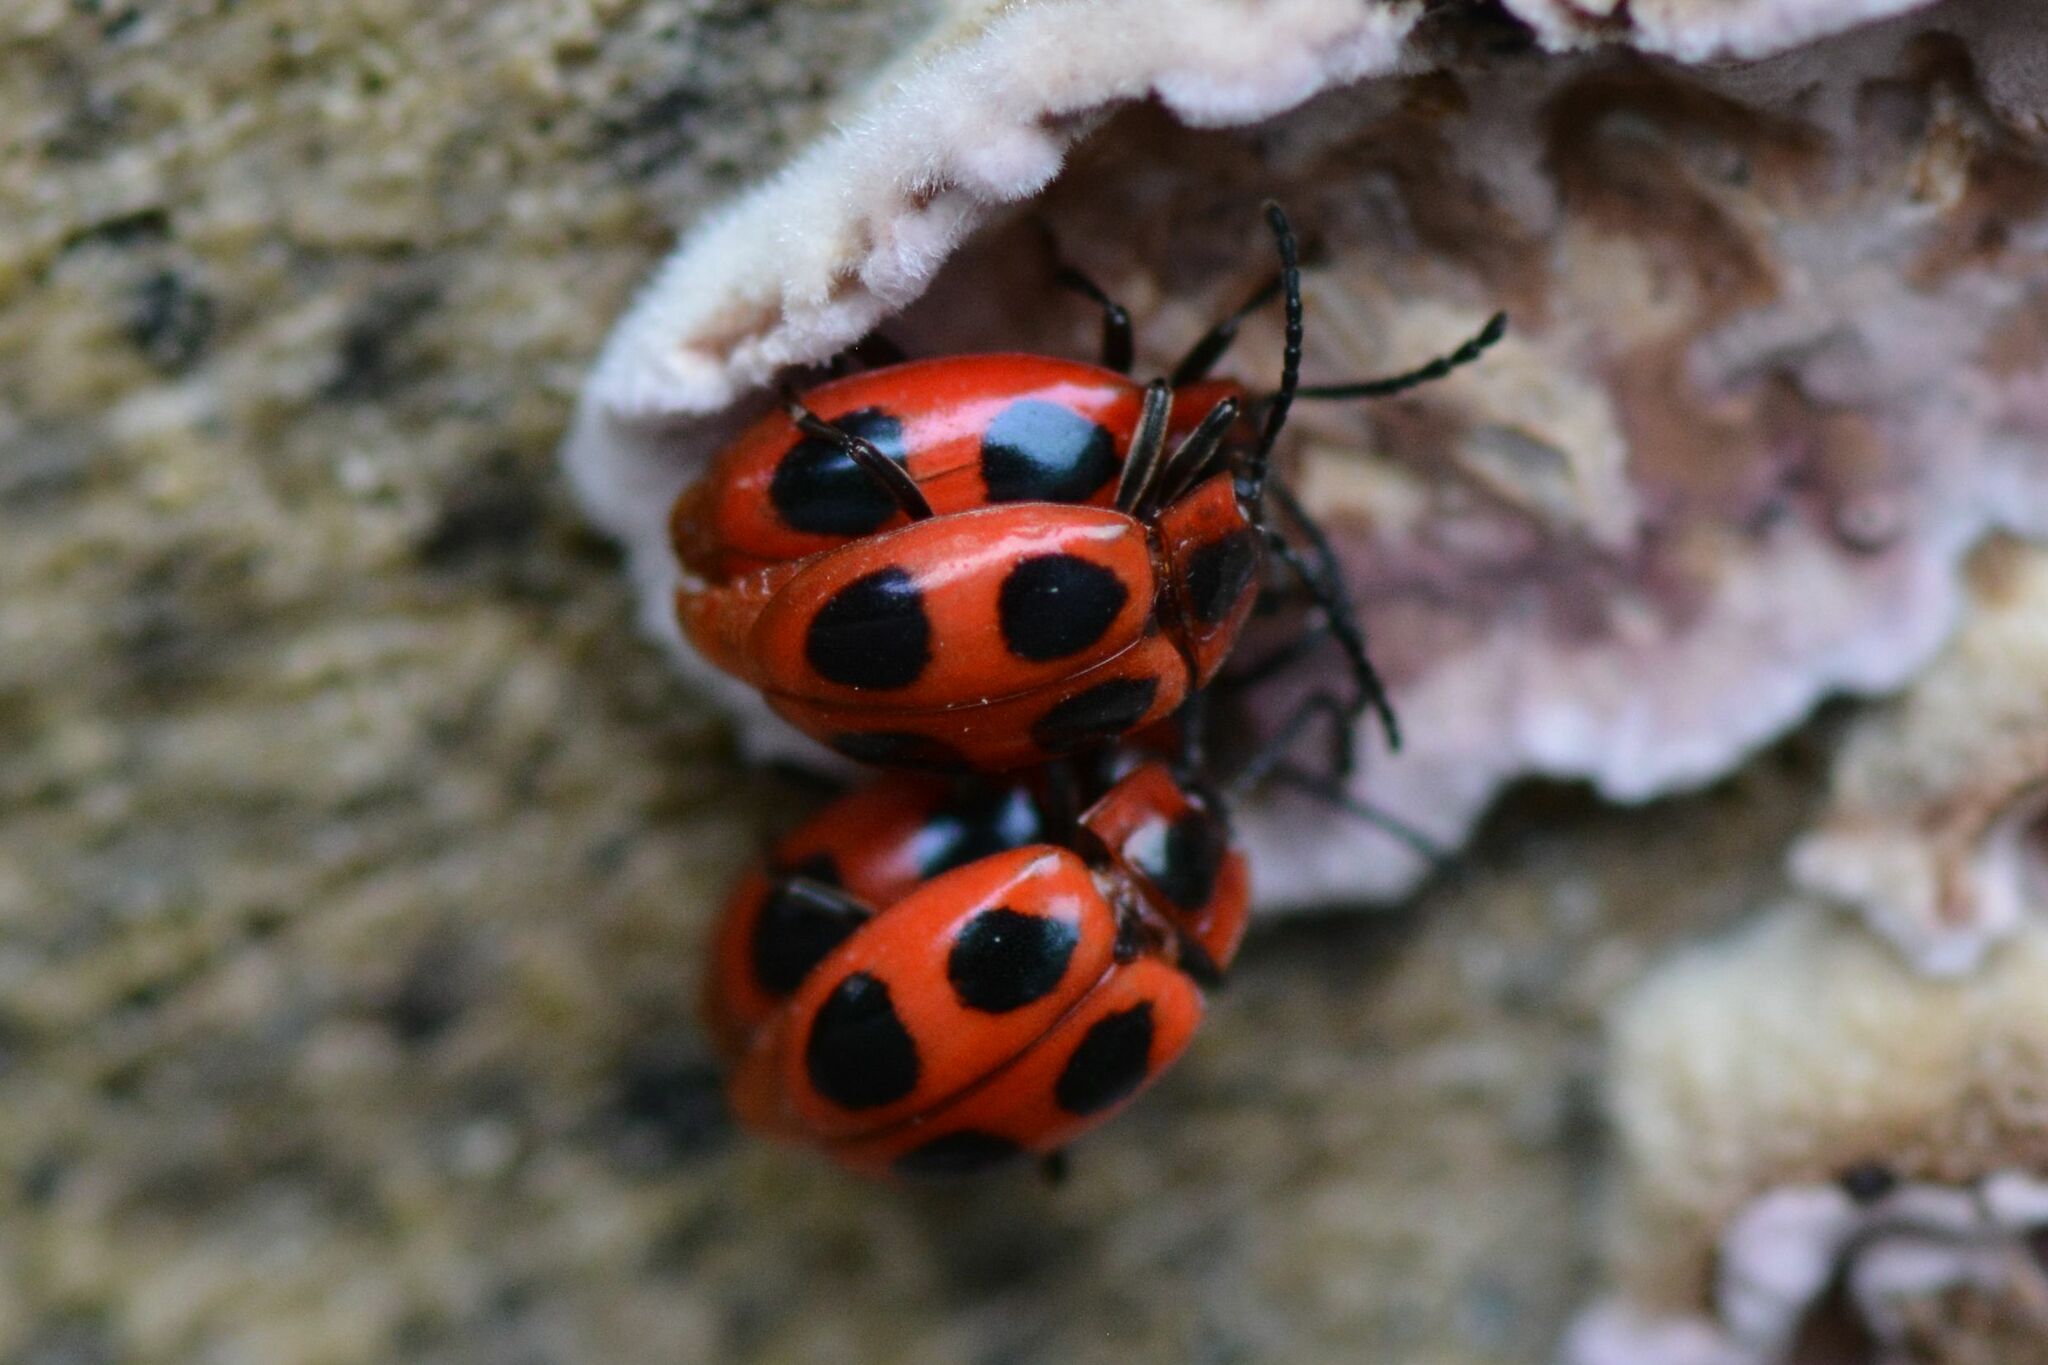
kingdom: Animalia
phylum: Arthropoda
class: Insecta
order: Coleoptera
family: Endomychidae
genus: Endomychus
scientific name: Endomychus coccineus
